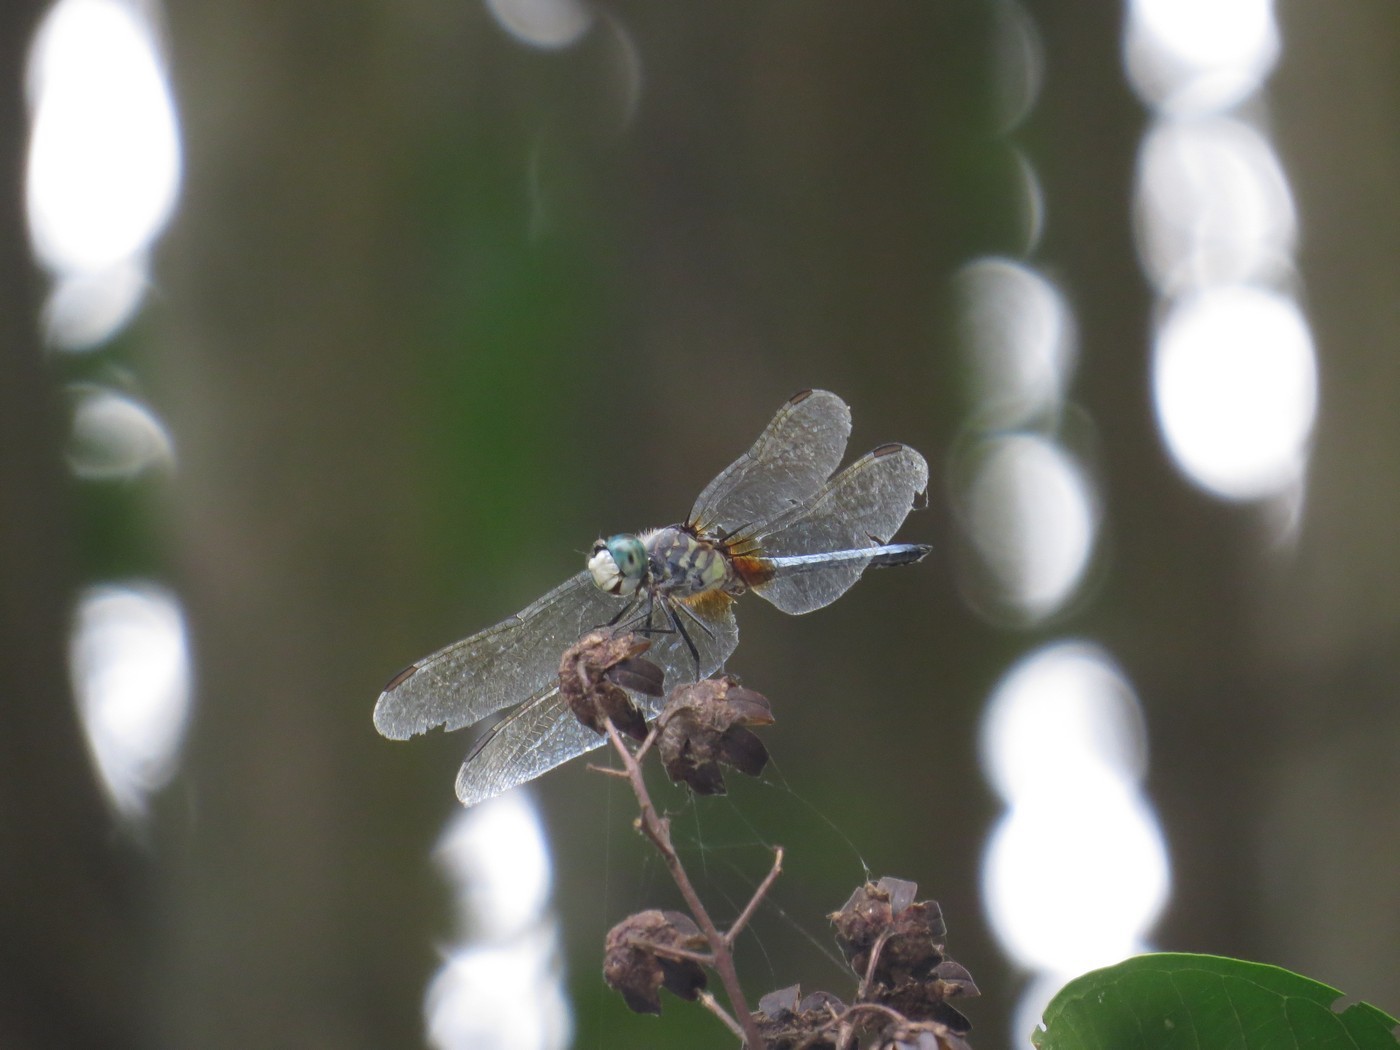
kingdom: Animalia
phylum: Arthropoda
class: Insecta
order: Odonata
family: Libellulidae
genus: Pachydiplax
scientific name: Pachydiplax longipennis
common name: Blue dasher
